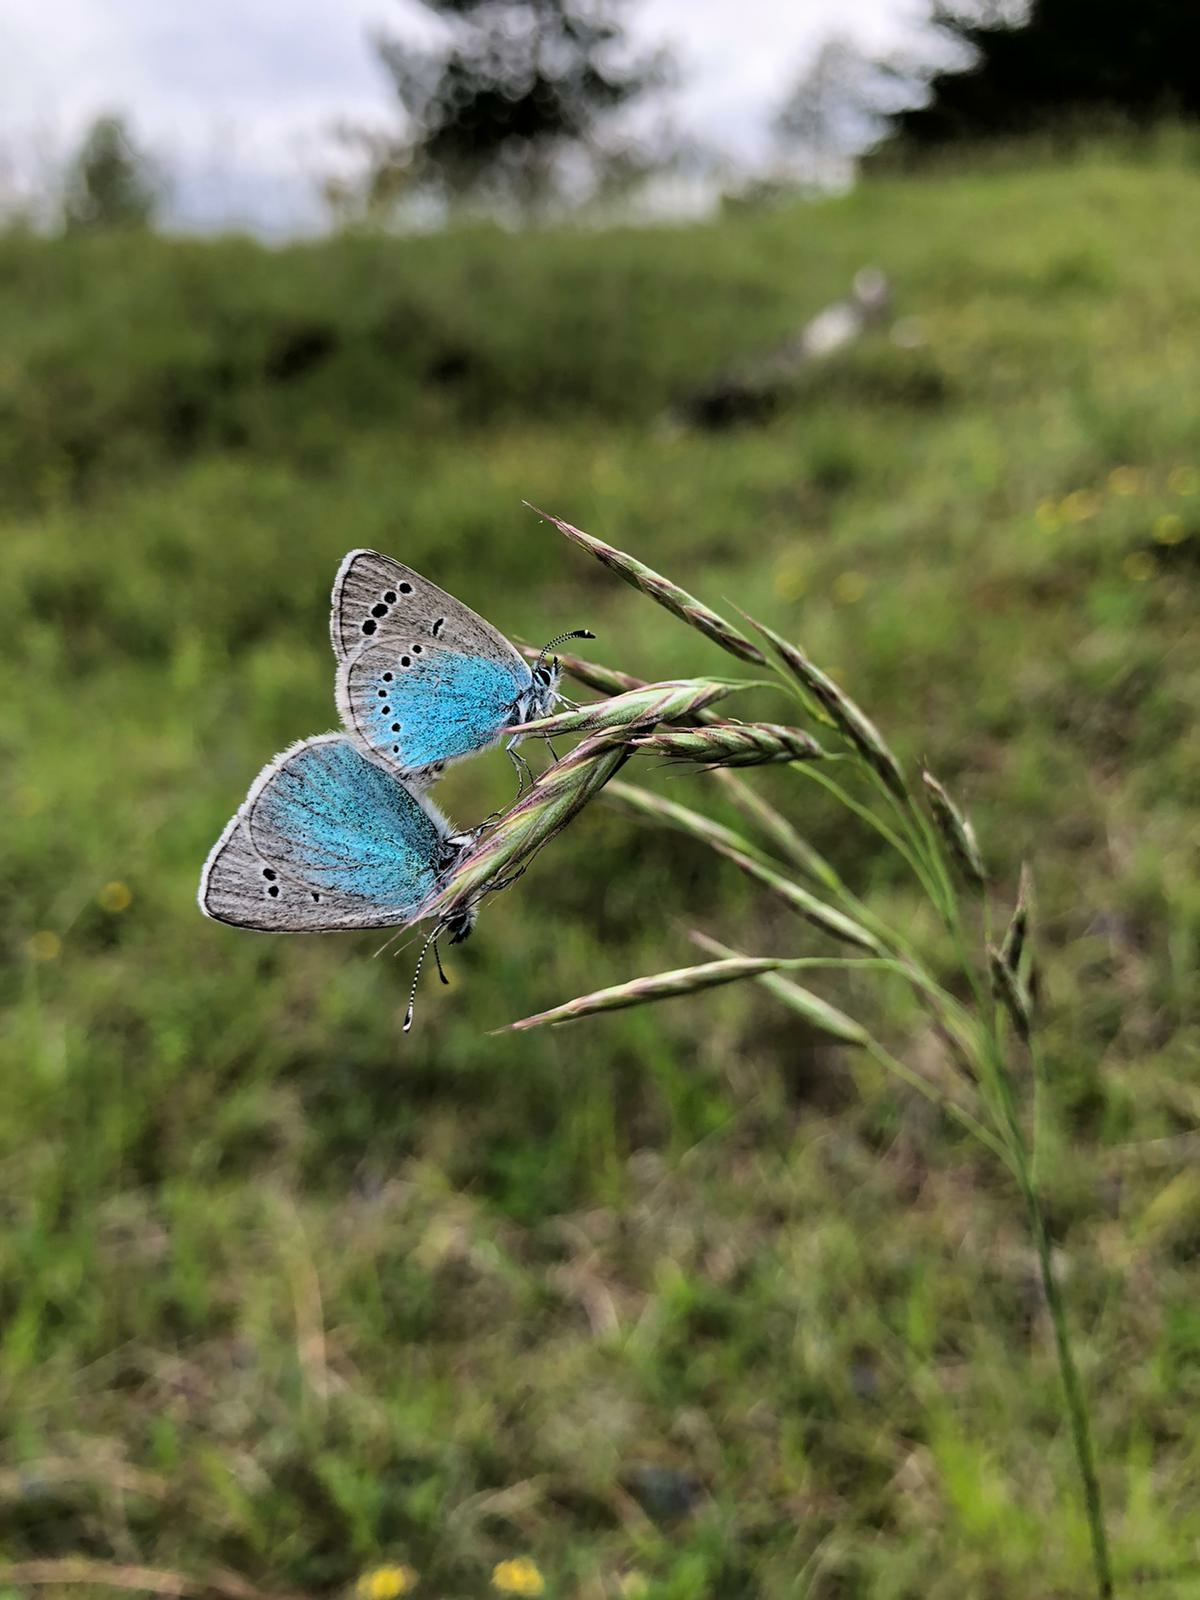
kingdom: Animalia
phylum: Arthropoda
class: Insecta
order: Lepidoptera
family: Lycaenidae
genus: Glaucopsyche
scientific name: Glaucopsyche alexis
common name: Green-underside blue
